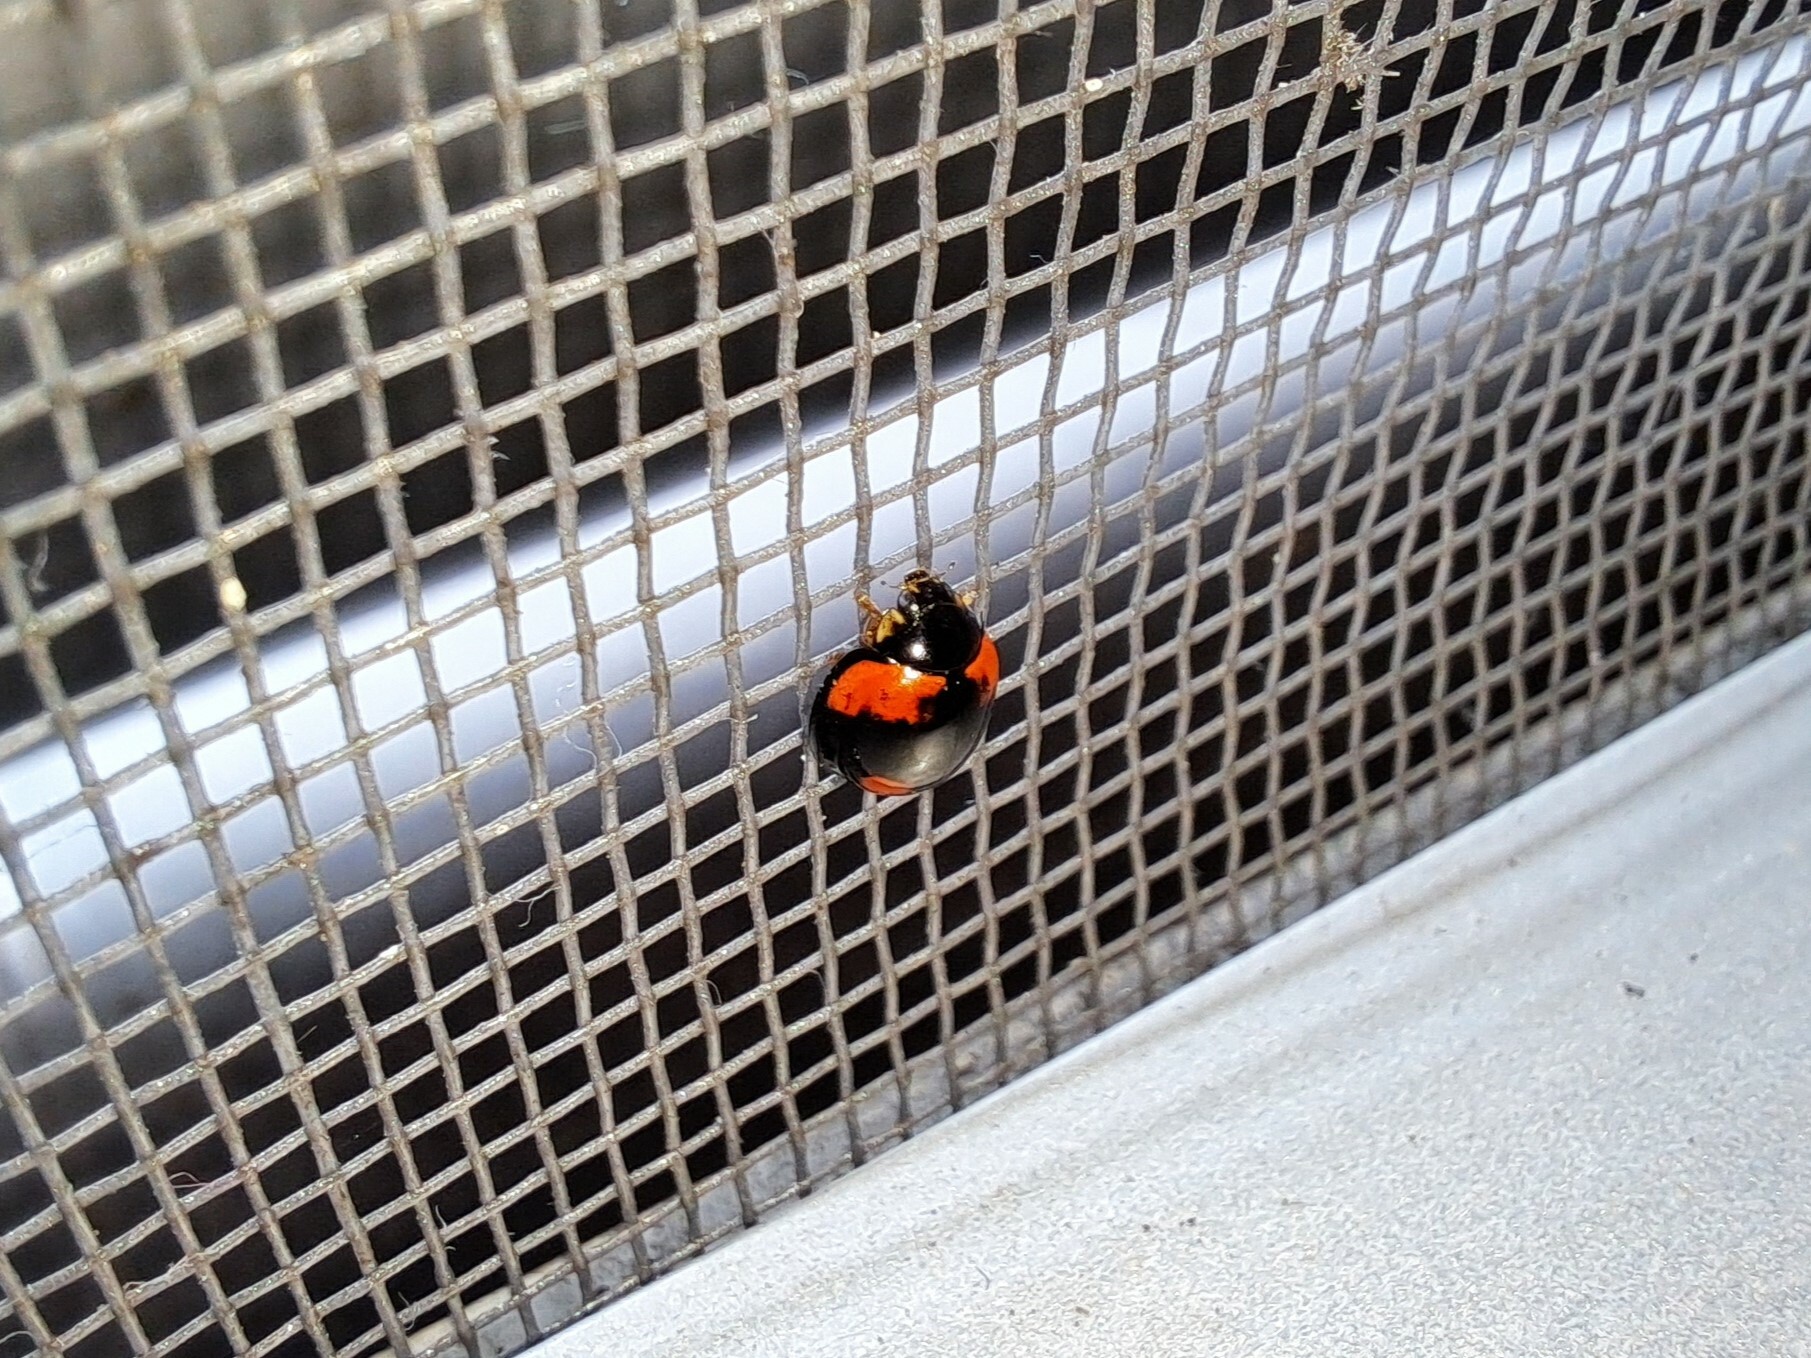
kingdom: Animalia
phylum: Arthropoda
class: Insecta
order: Coleoptera
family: Coccinellidae
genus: Cheilomenes
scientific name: Cheilomenes sexmaculata
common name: Ladybird beetle
